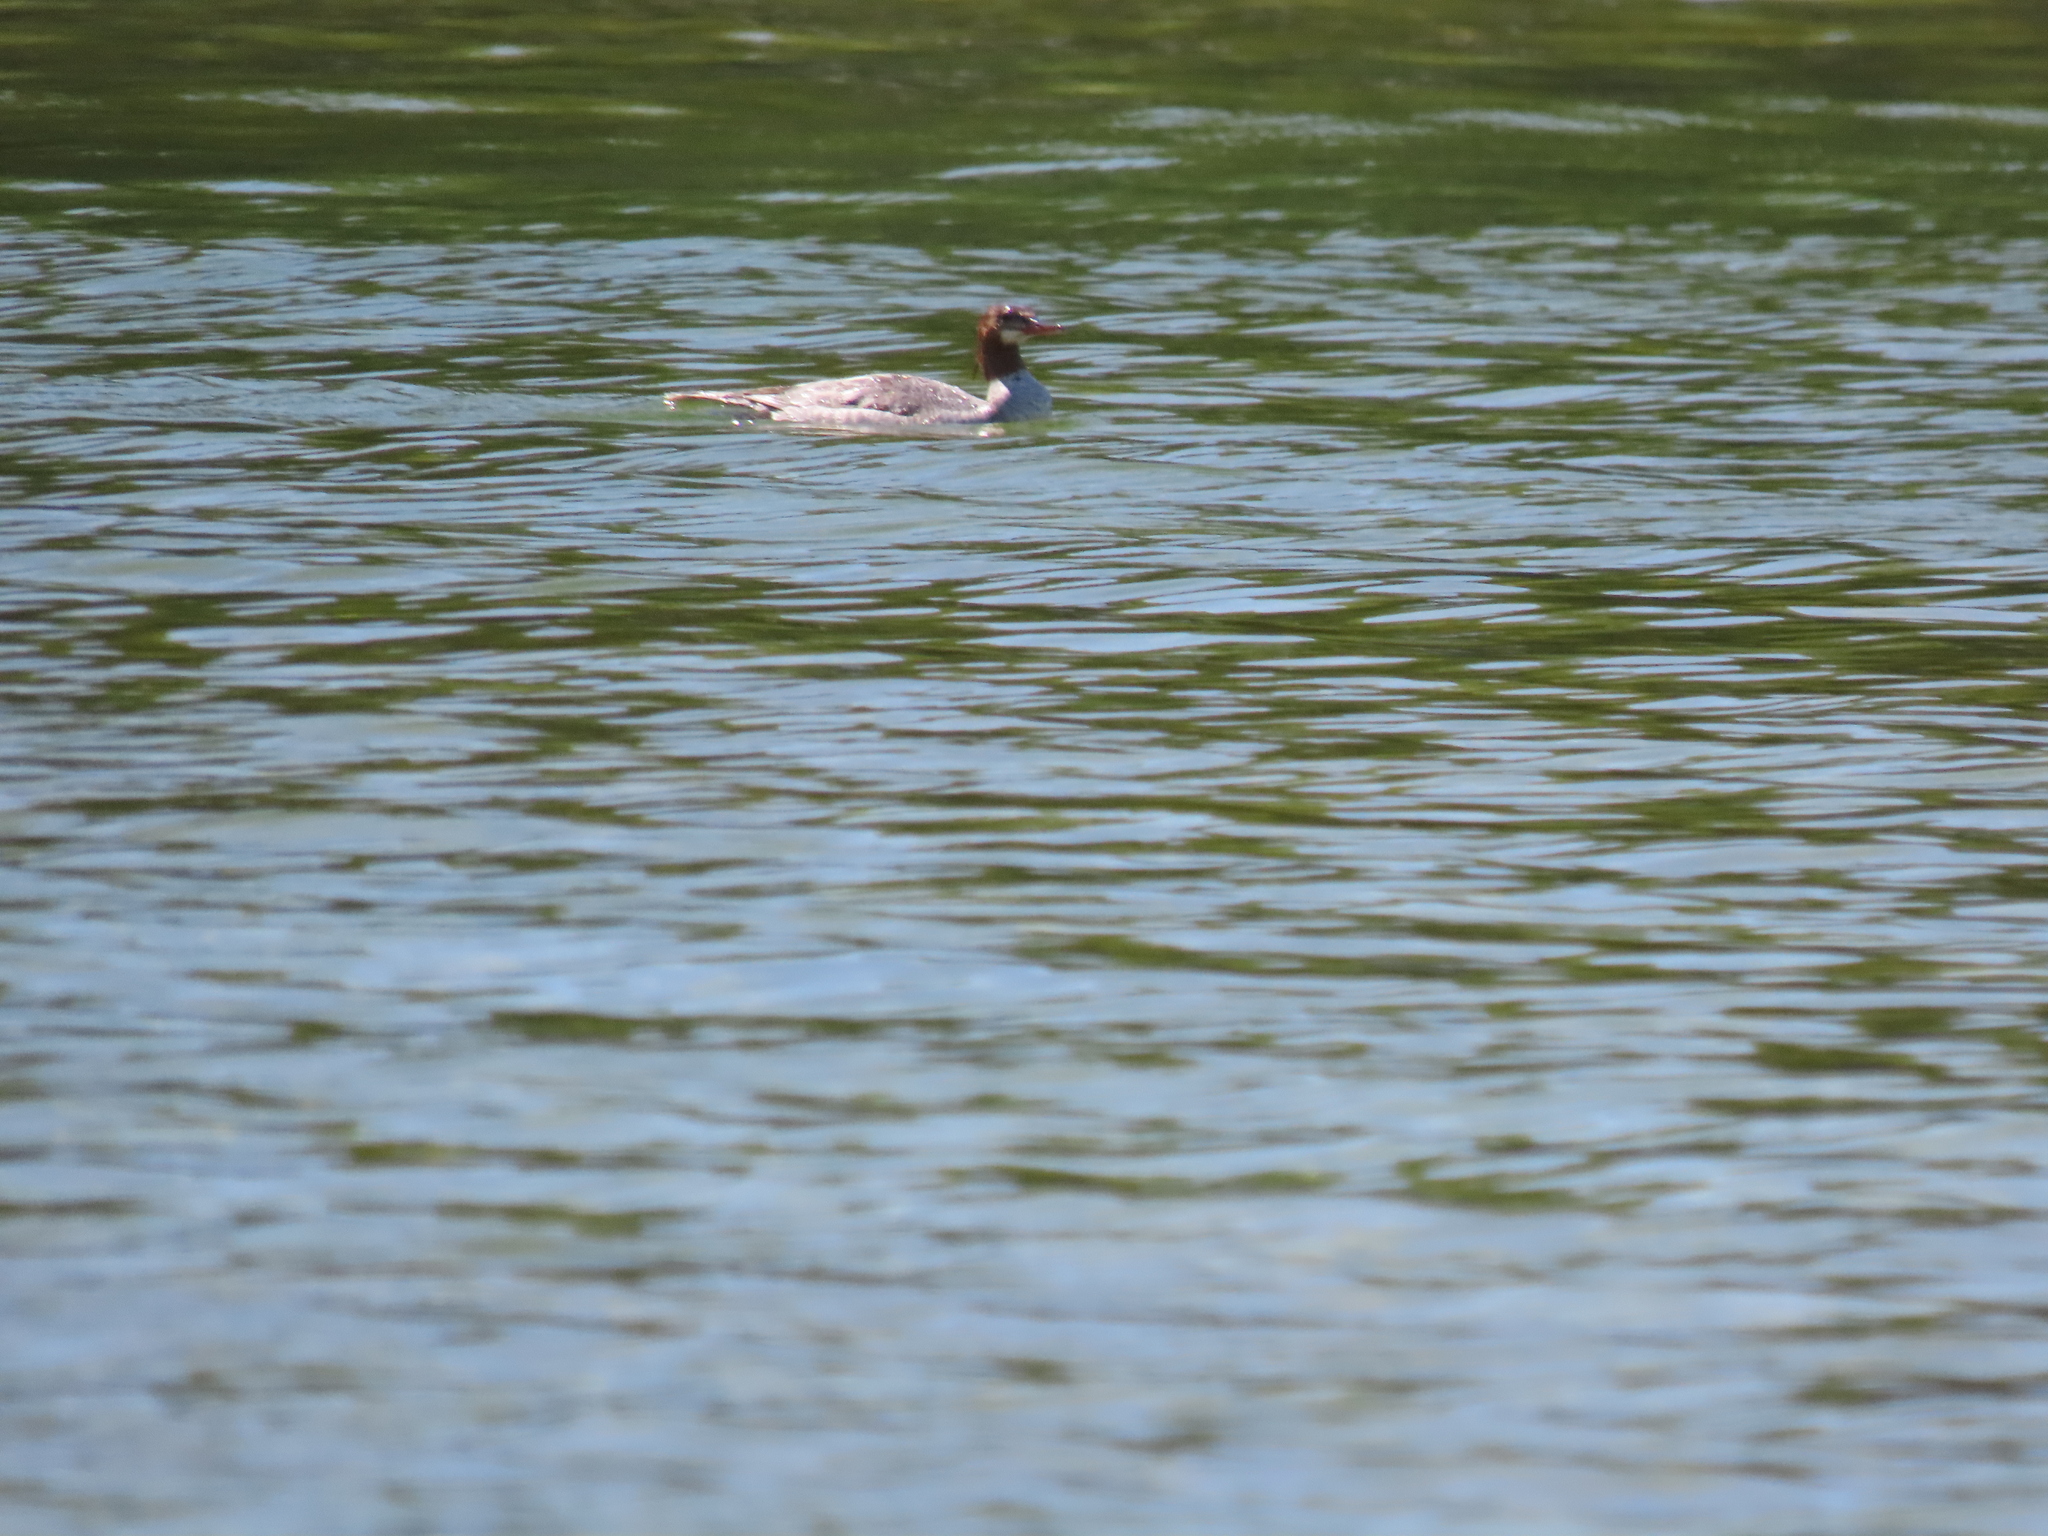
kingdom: Animalia
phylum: Chordata
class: Aves
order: Anseriformes
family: Anatidae
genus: Mergus
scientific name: Mergus merganser
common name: Common merganser
